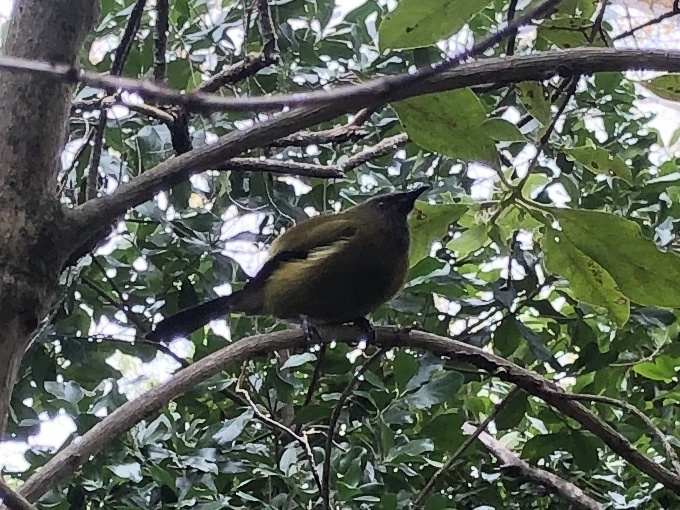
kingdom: Animalia
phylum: Chordata
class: Aves
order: Passeriformes
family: Meliphagidae
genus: Anthornis
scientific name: Anthornis melanura
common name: New zealand bellbird
